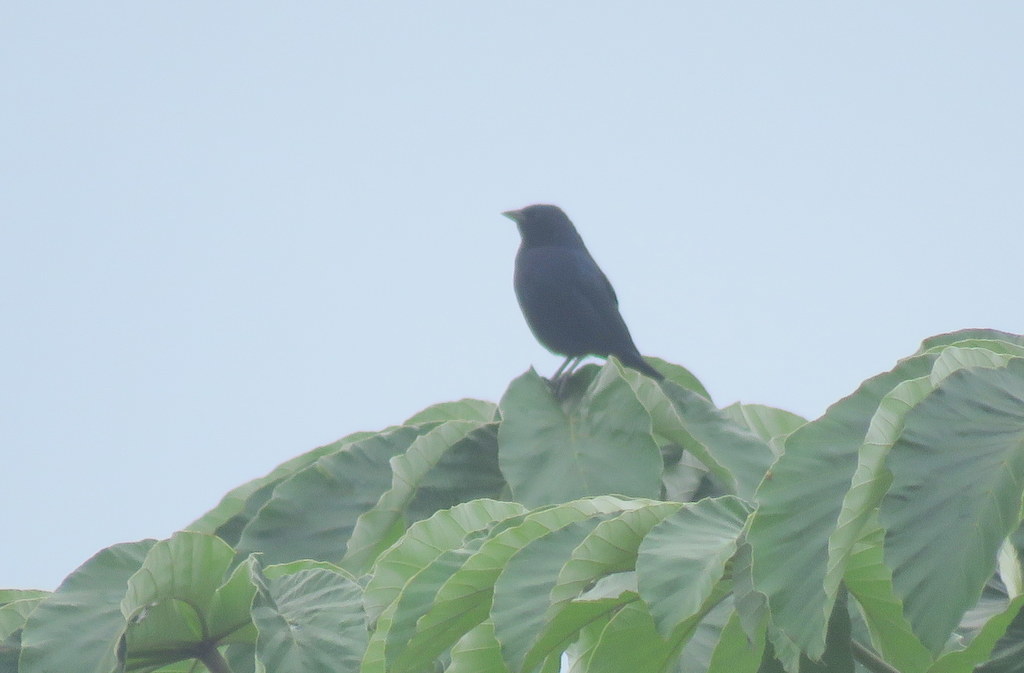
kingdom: Animalia
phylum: Chordata
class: Aves
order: Passeriformes
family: Icteridae
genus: Molothrus
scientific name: Molothrus bonariensis
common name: Shiny cowbird
